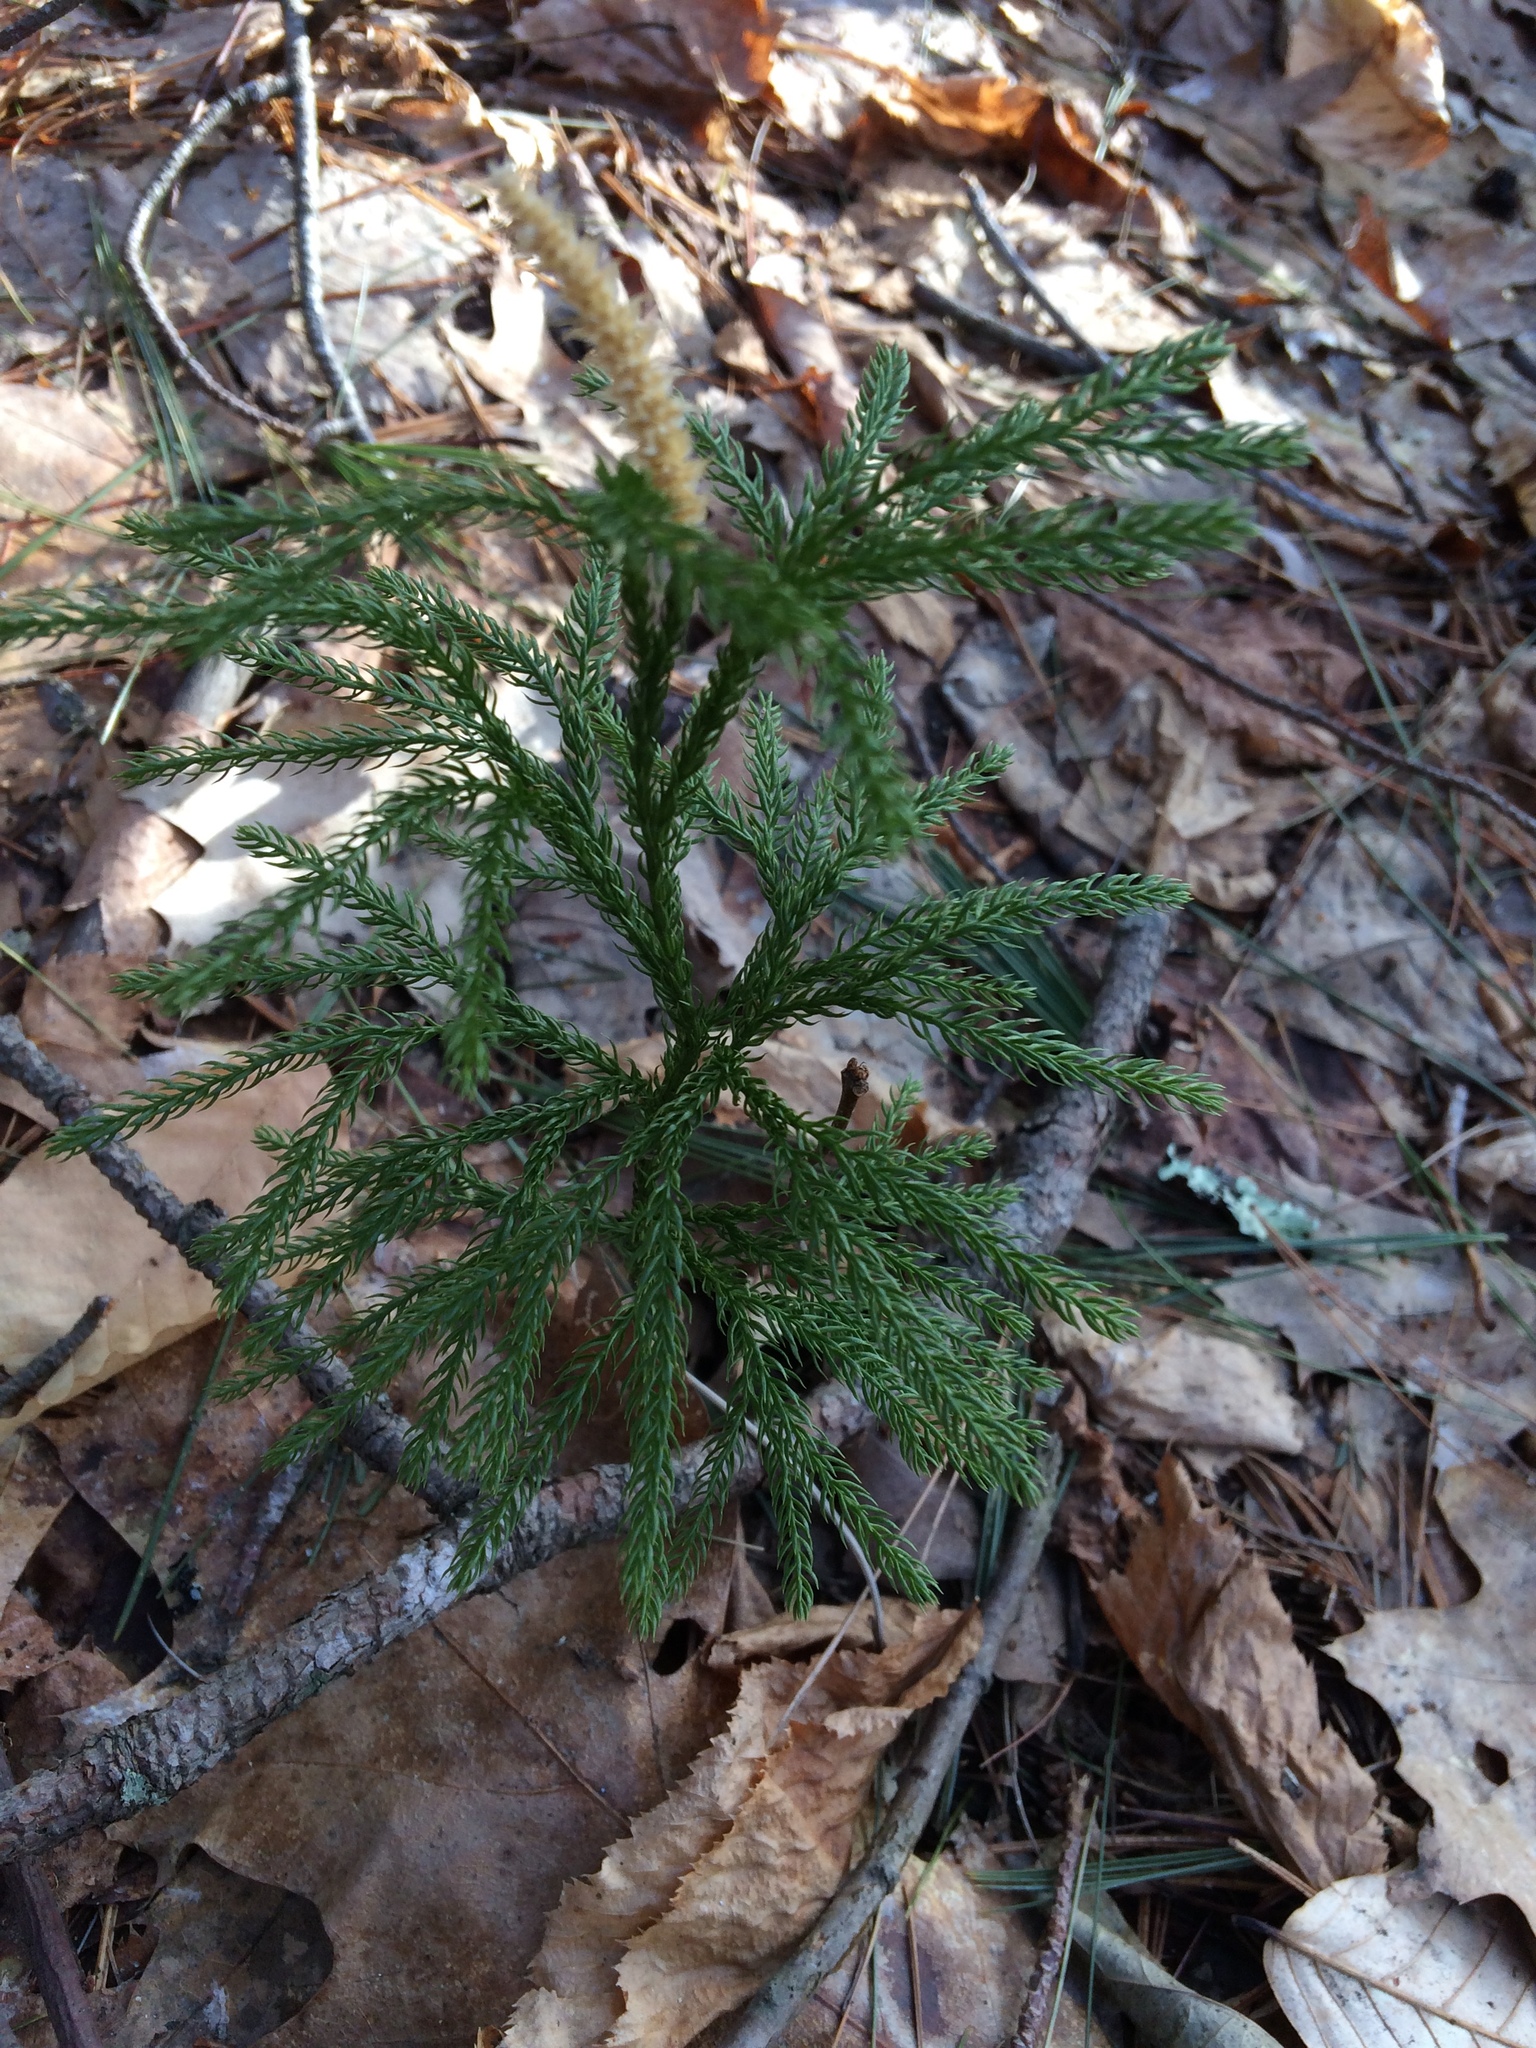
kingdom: Plantae
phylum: Tracheophyta
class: Lycopodiopsida
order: Lycopodiales
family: Lycopodiaceae
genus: Dendrolycopodium
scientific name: Dendrolycopodium hickeyi
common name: Hickey's clubmoss
